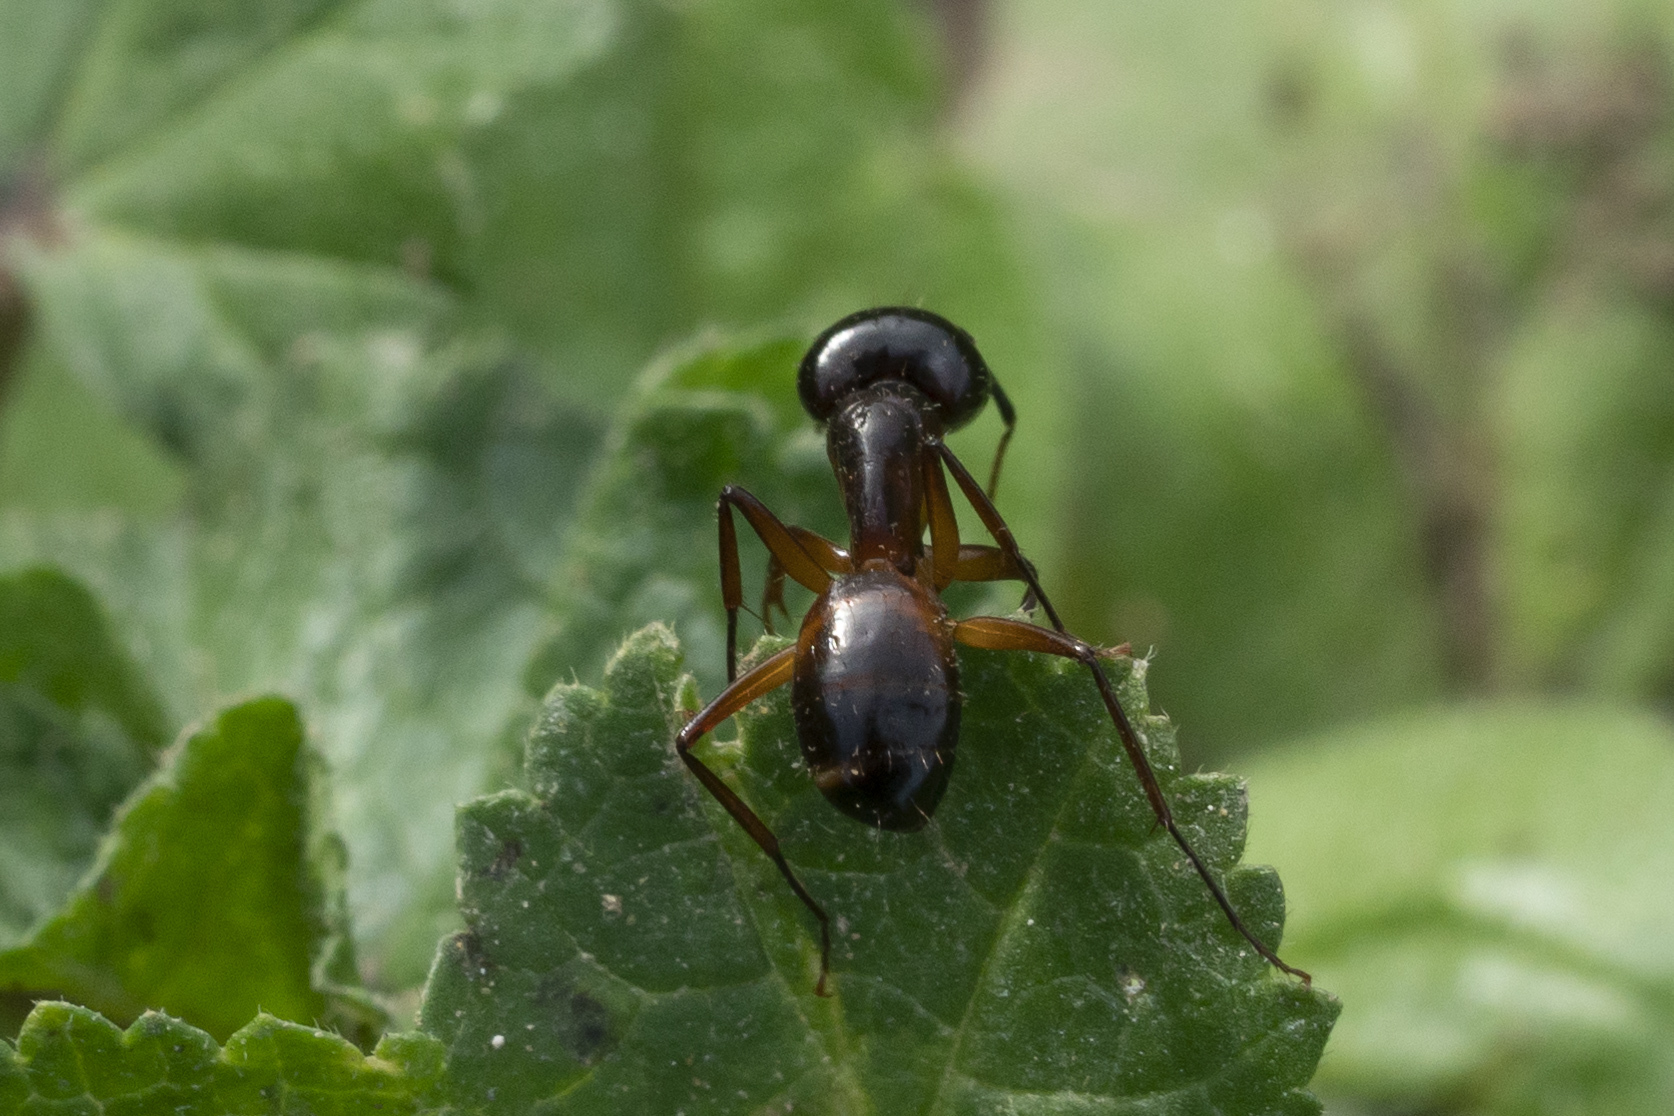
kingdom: Animalia
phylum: Arthropoda
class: Insecta
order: Hymenoptera
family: Formicidae
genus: Camponotus
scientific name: Camponotus sanctus
